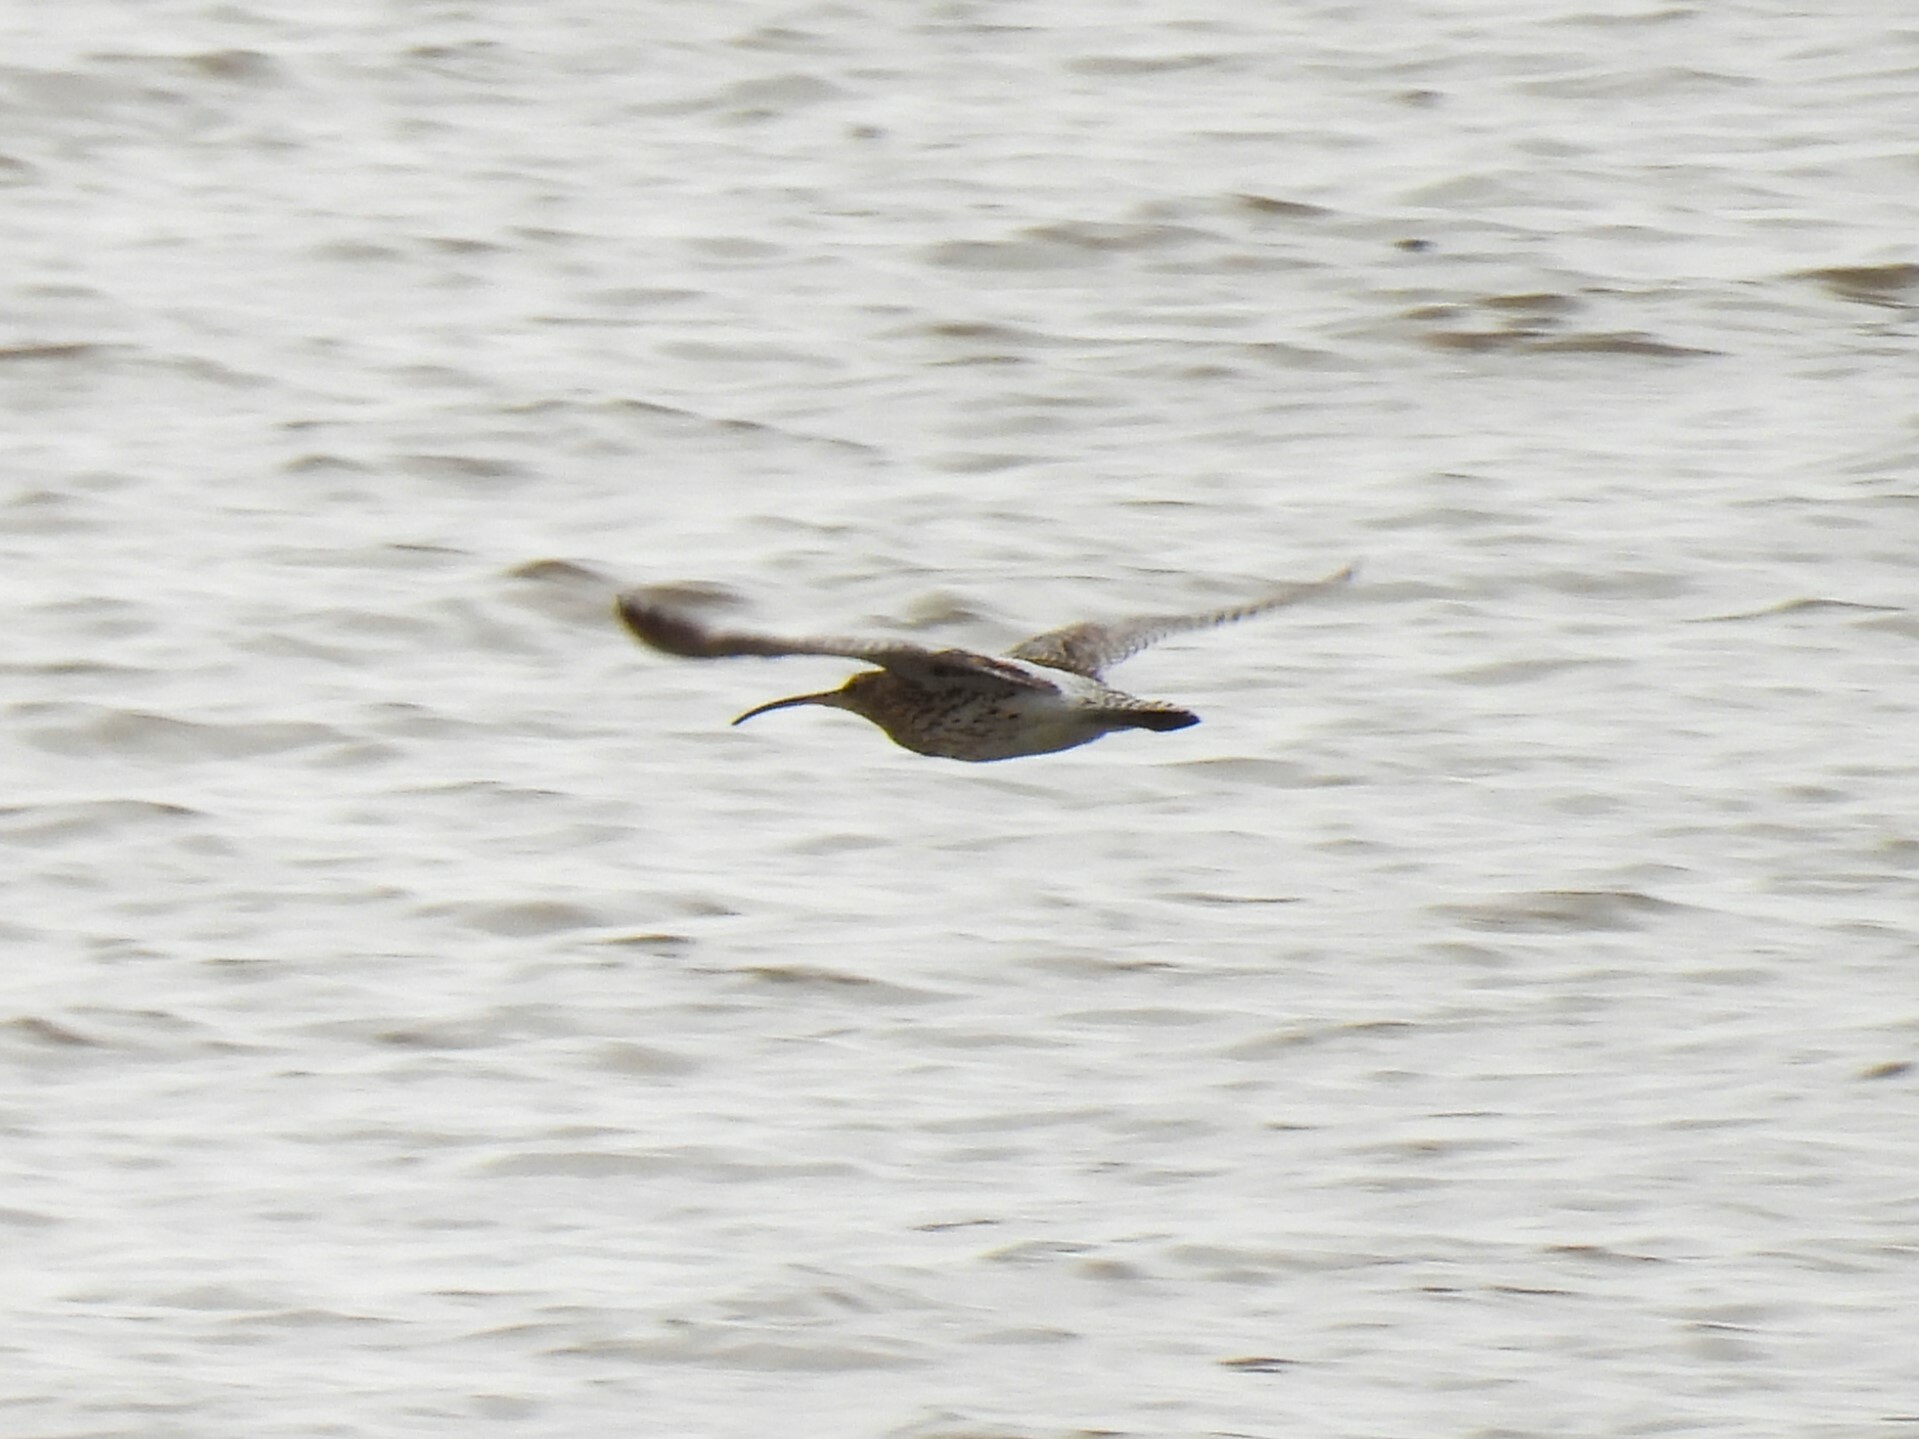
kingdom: Animalia
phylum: Chordata
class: Aves
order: Charadriiformes
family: Scolopacidae
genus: Numenius
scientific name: Numenius arquata
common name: Eurasian curlew
